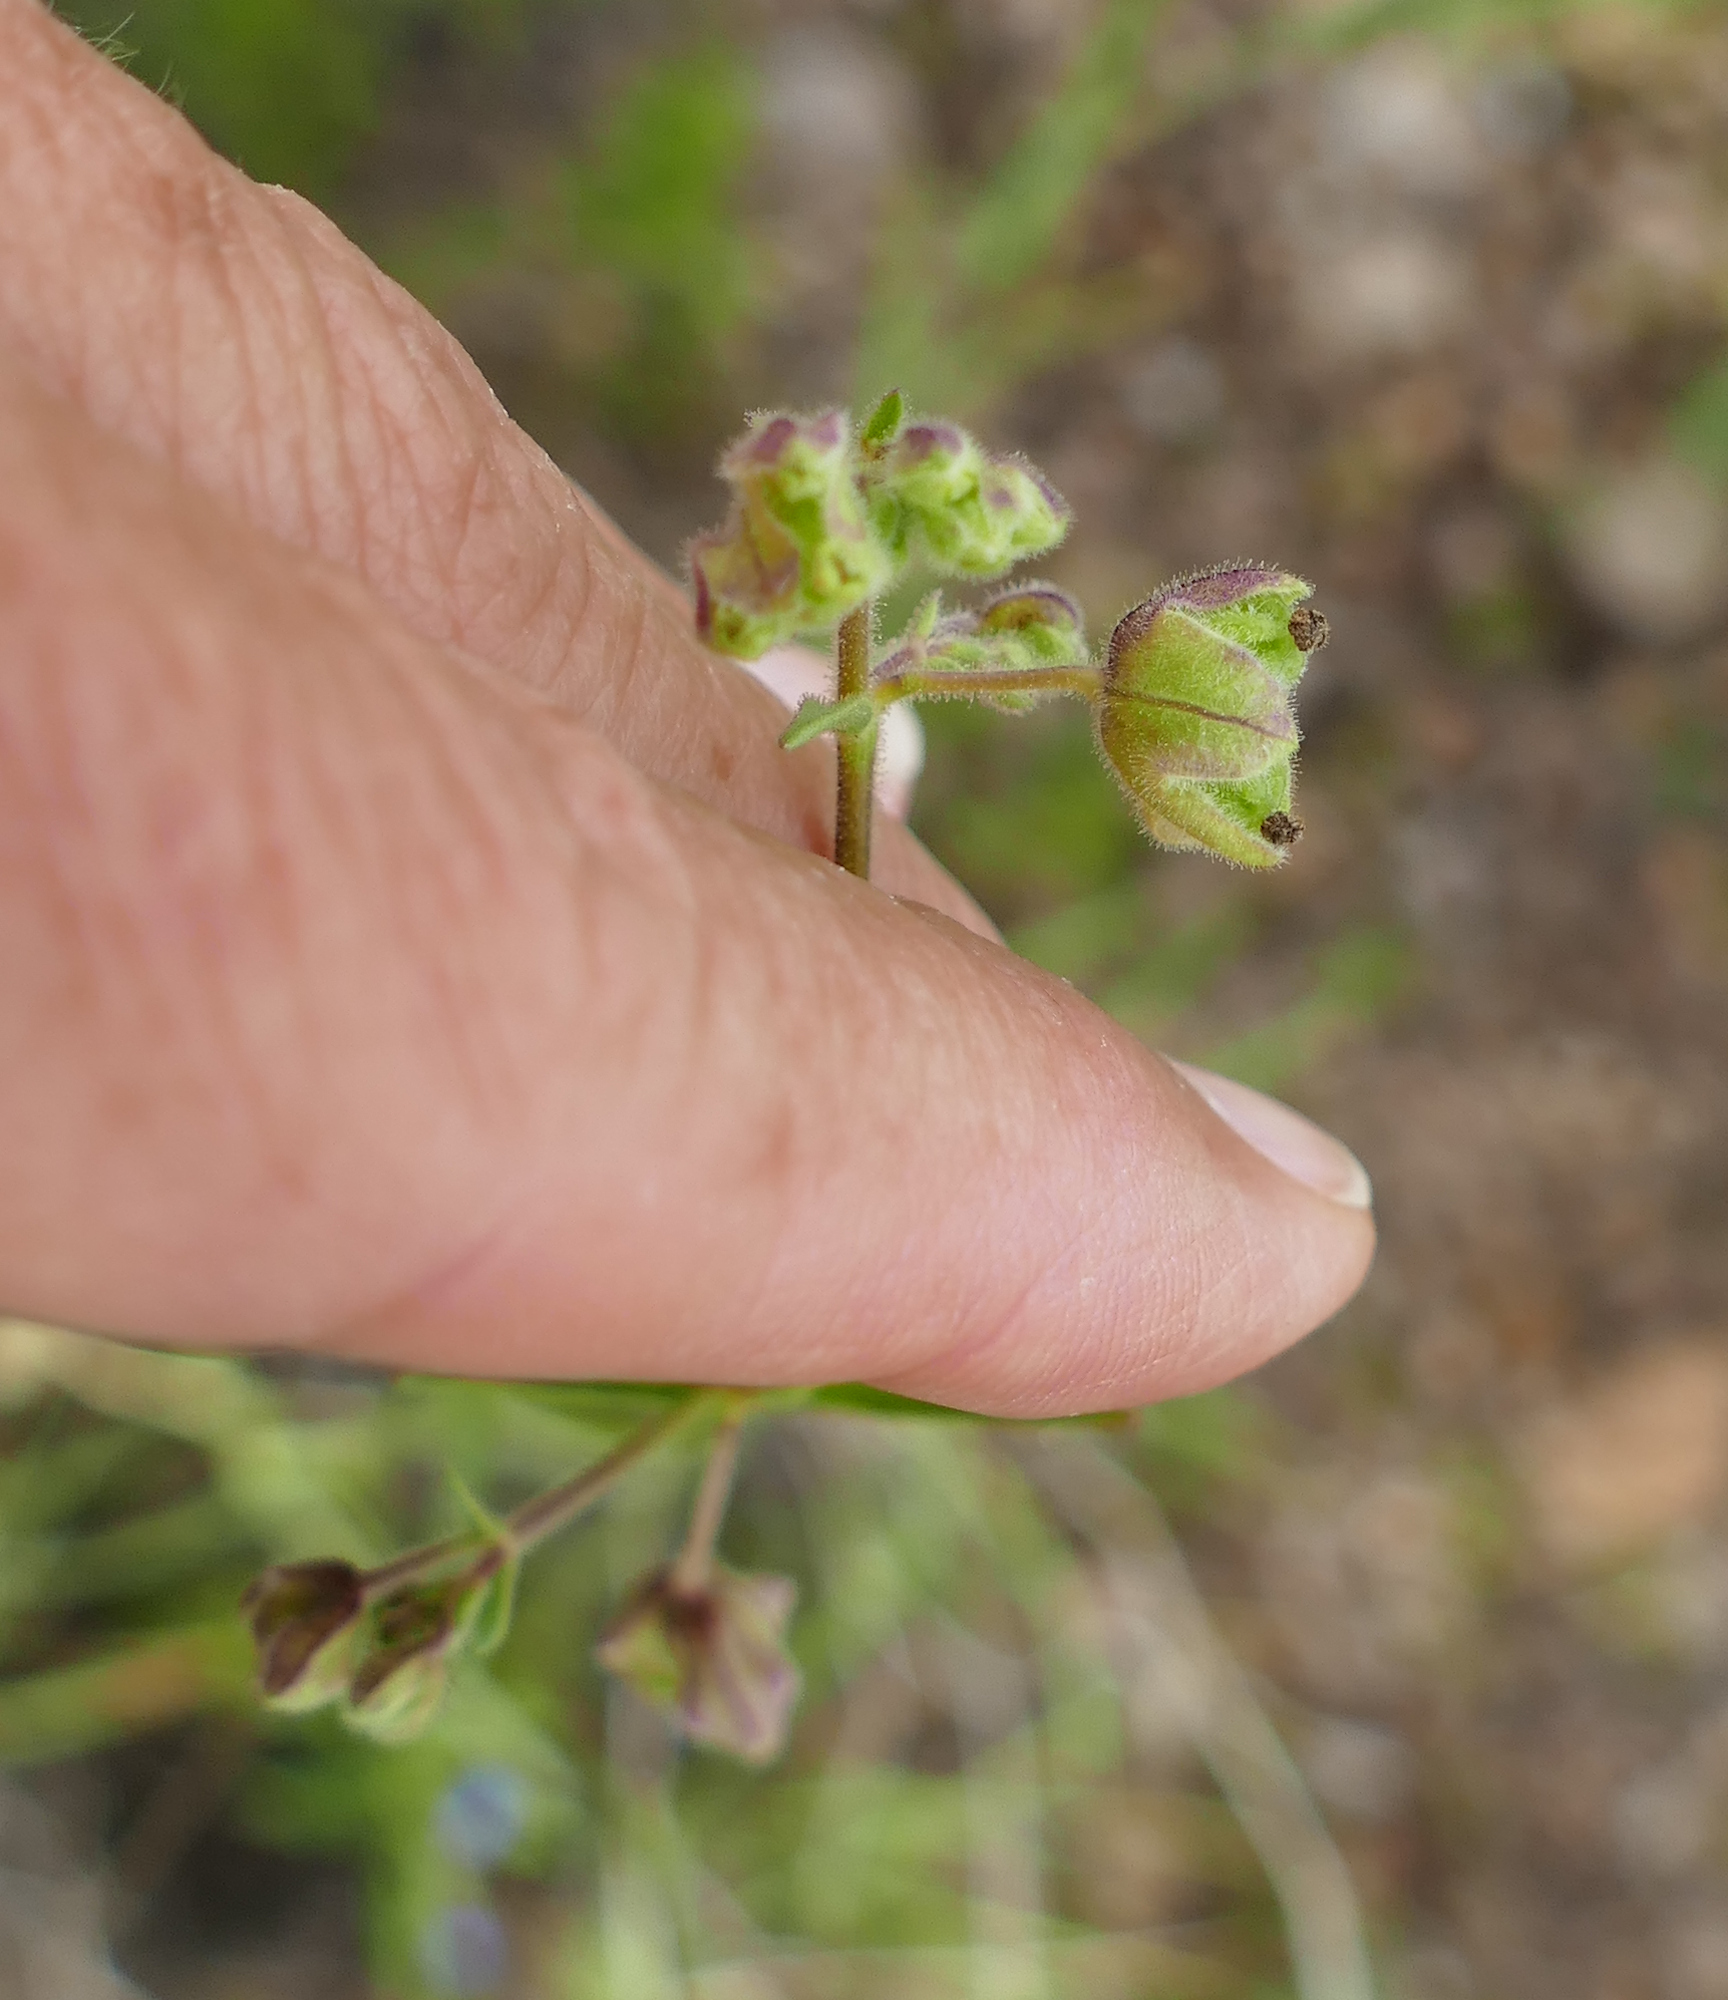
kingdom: Plantae
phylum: Tracheophyta
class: Magnoliopsida
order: Caryophyllales
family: Nyctaginaceae
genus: Mirabilis
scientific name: Mirabilis linearis
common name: Linear-leaved four-o'clock
